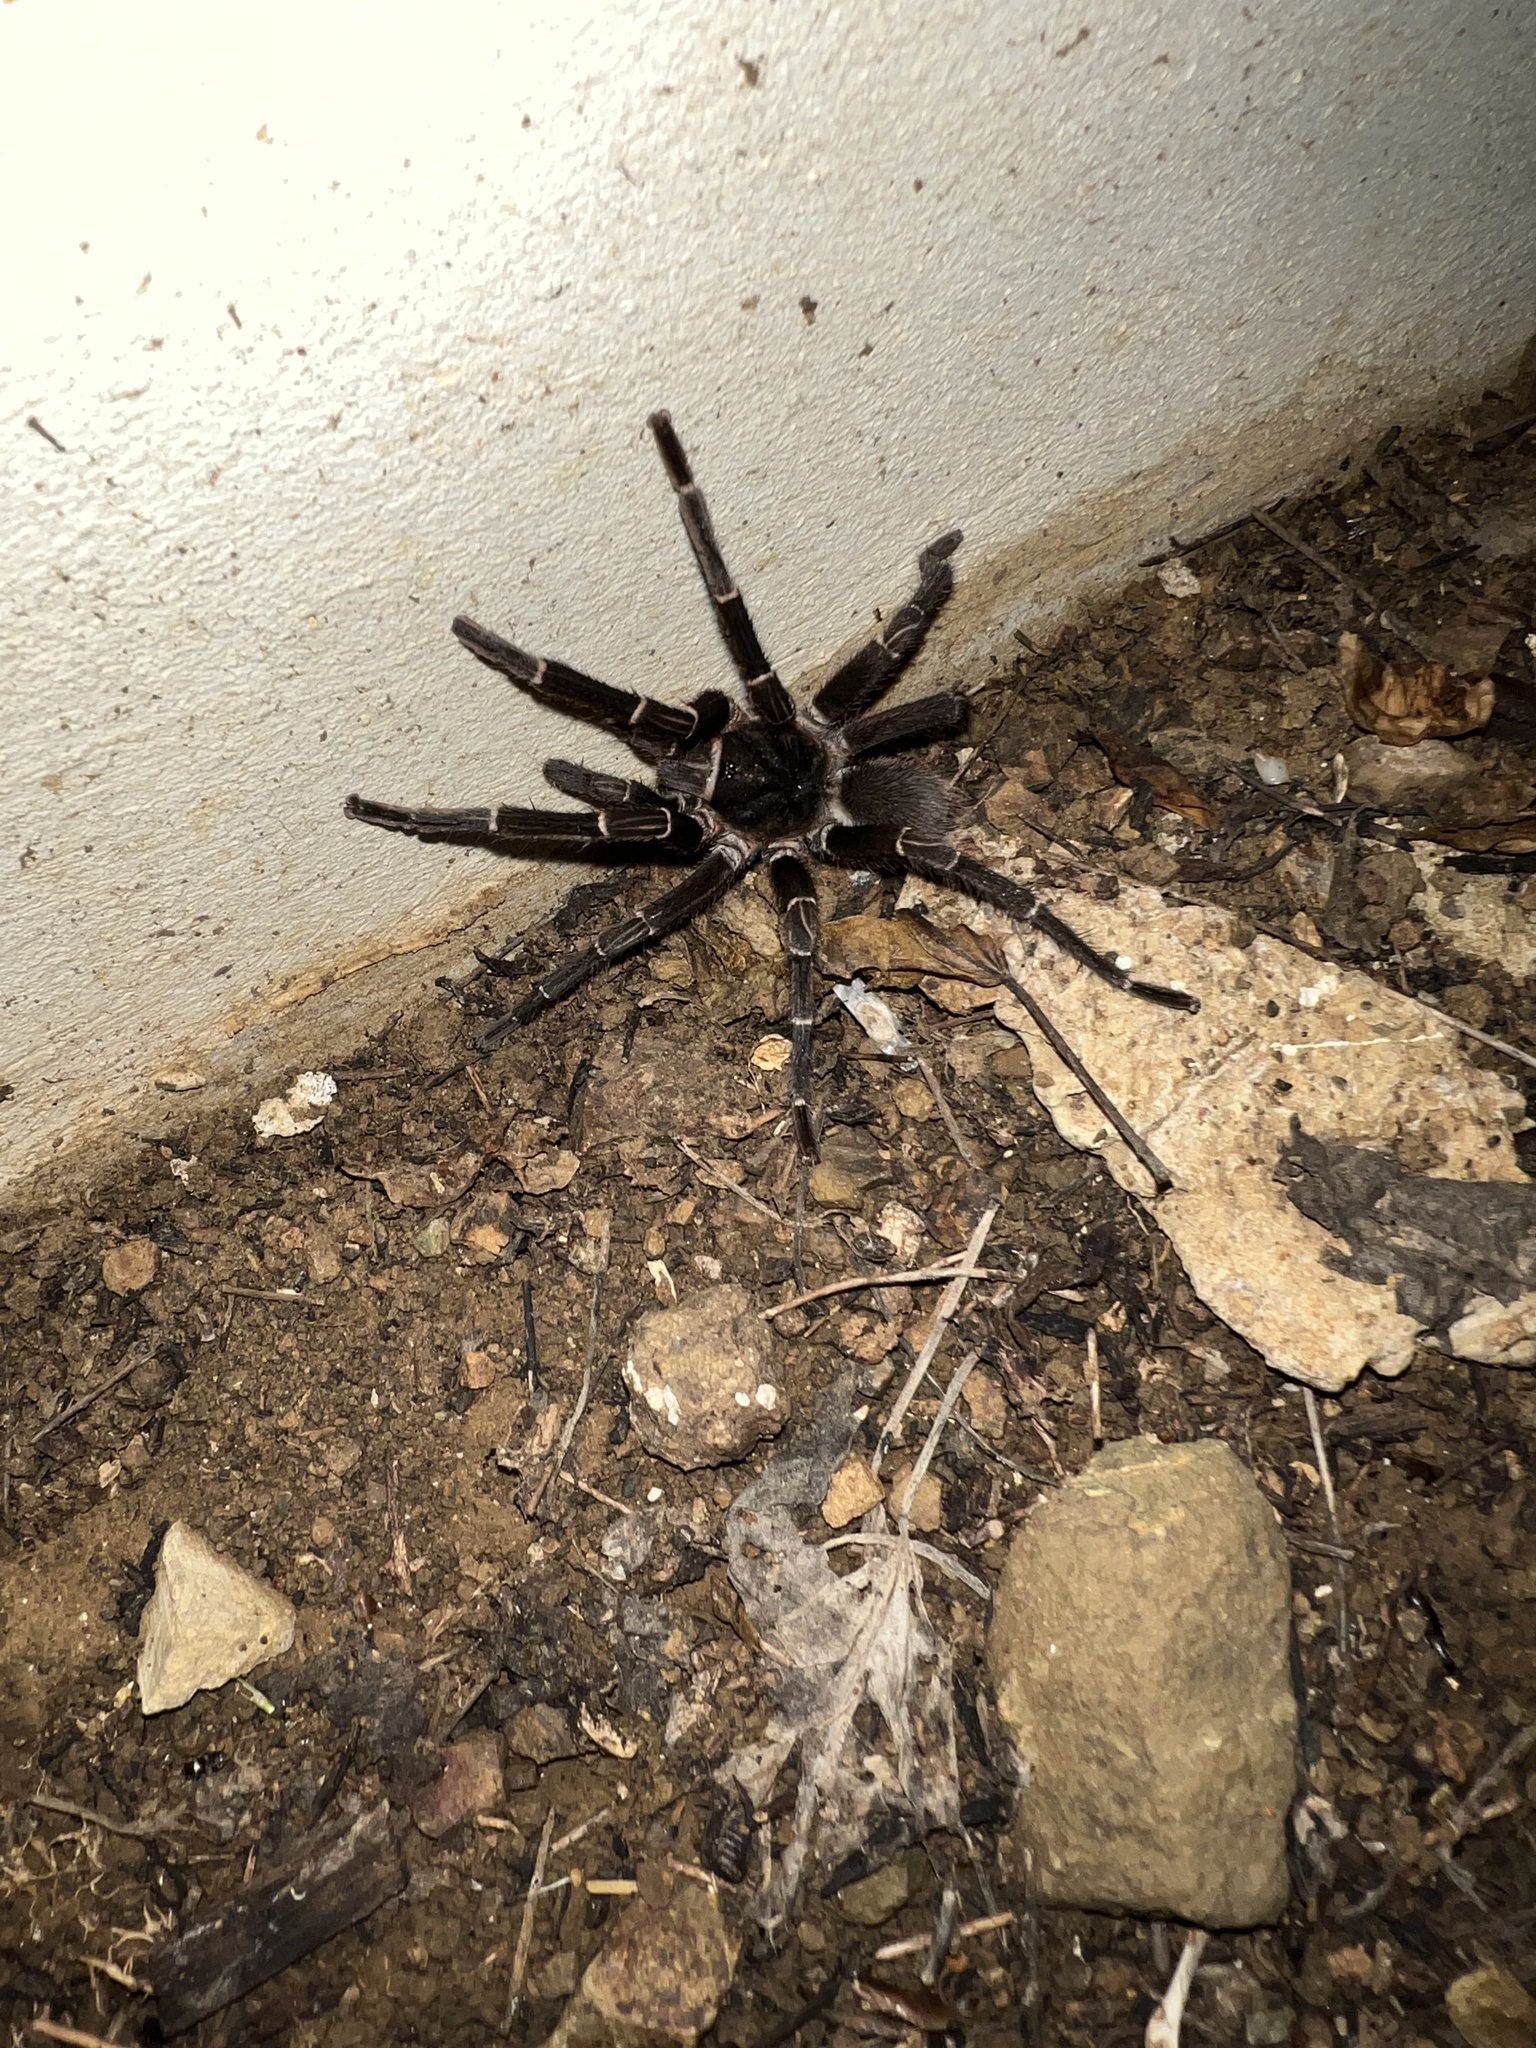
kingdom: Animalia
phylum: Arthropoda
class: Arachnida
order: Araneae
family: Theraphosidae
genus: Cyrtopholis
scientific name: Cyrtopholis portoricae
